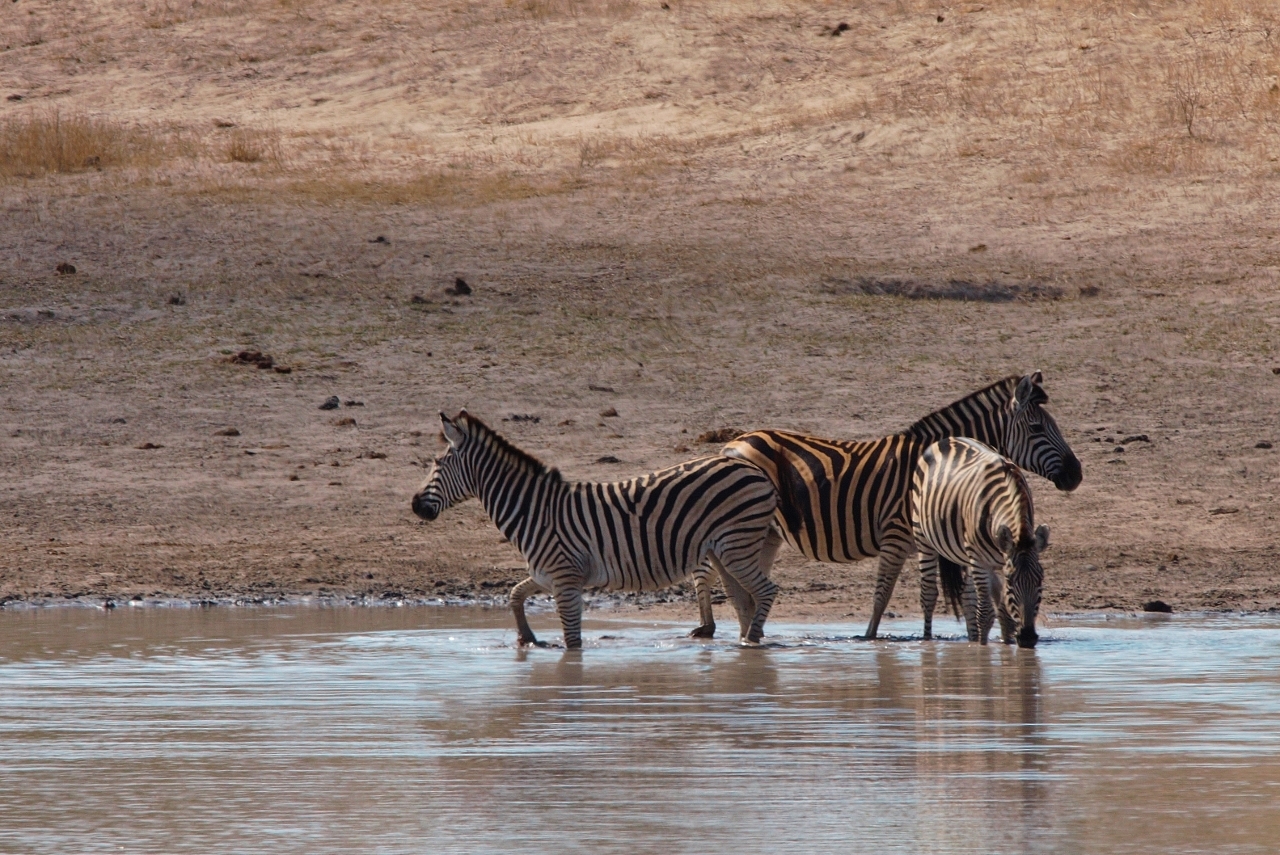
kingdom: Animalia
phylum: Chordata
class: Mammalia
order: Perissodactyla
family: Equidae
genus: Equus
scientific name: Equus quagga
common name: Plains zebra
